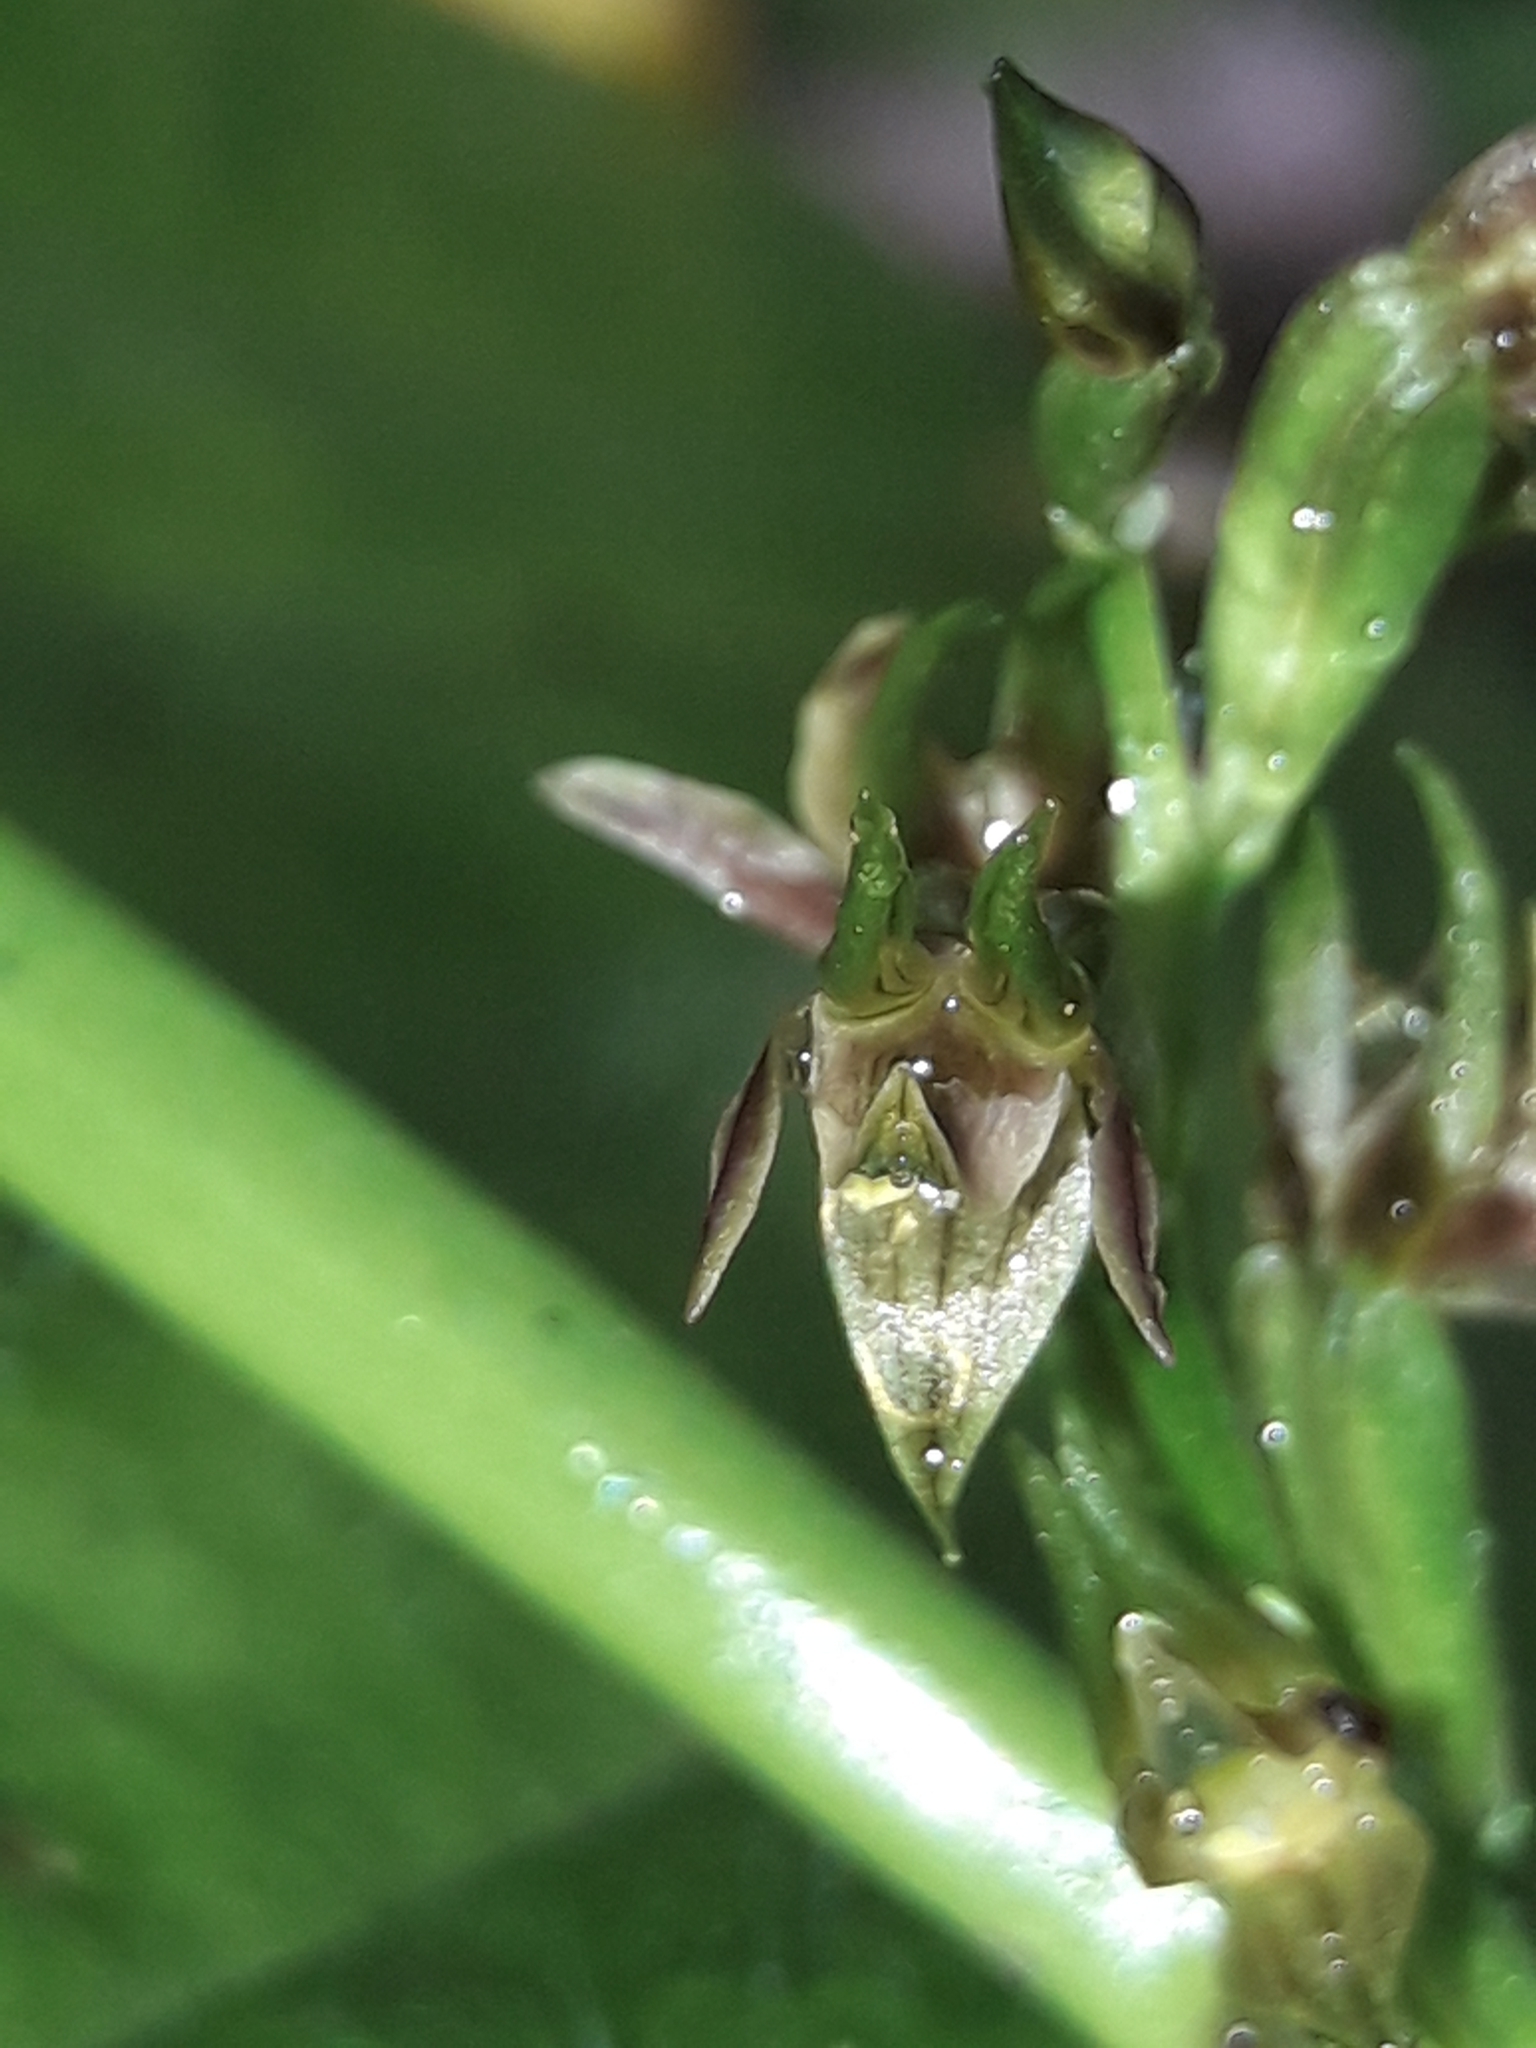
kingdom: Plantae
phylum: Tracheophyta
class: Liliopsida
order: Asparagales
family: Orchidaceae
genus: Prasophyllum
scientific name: Prasophyllum colensoi
